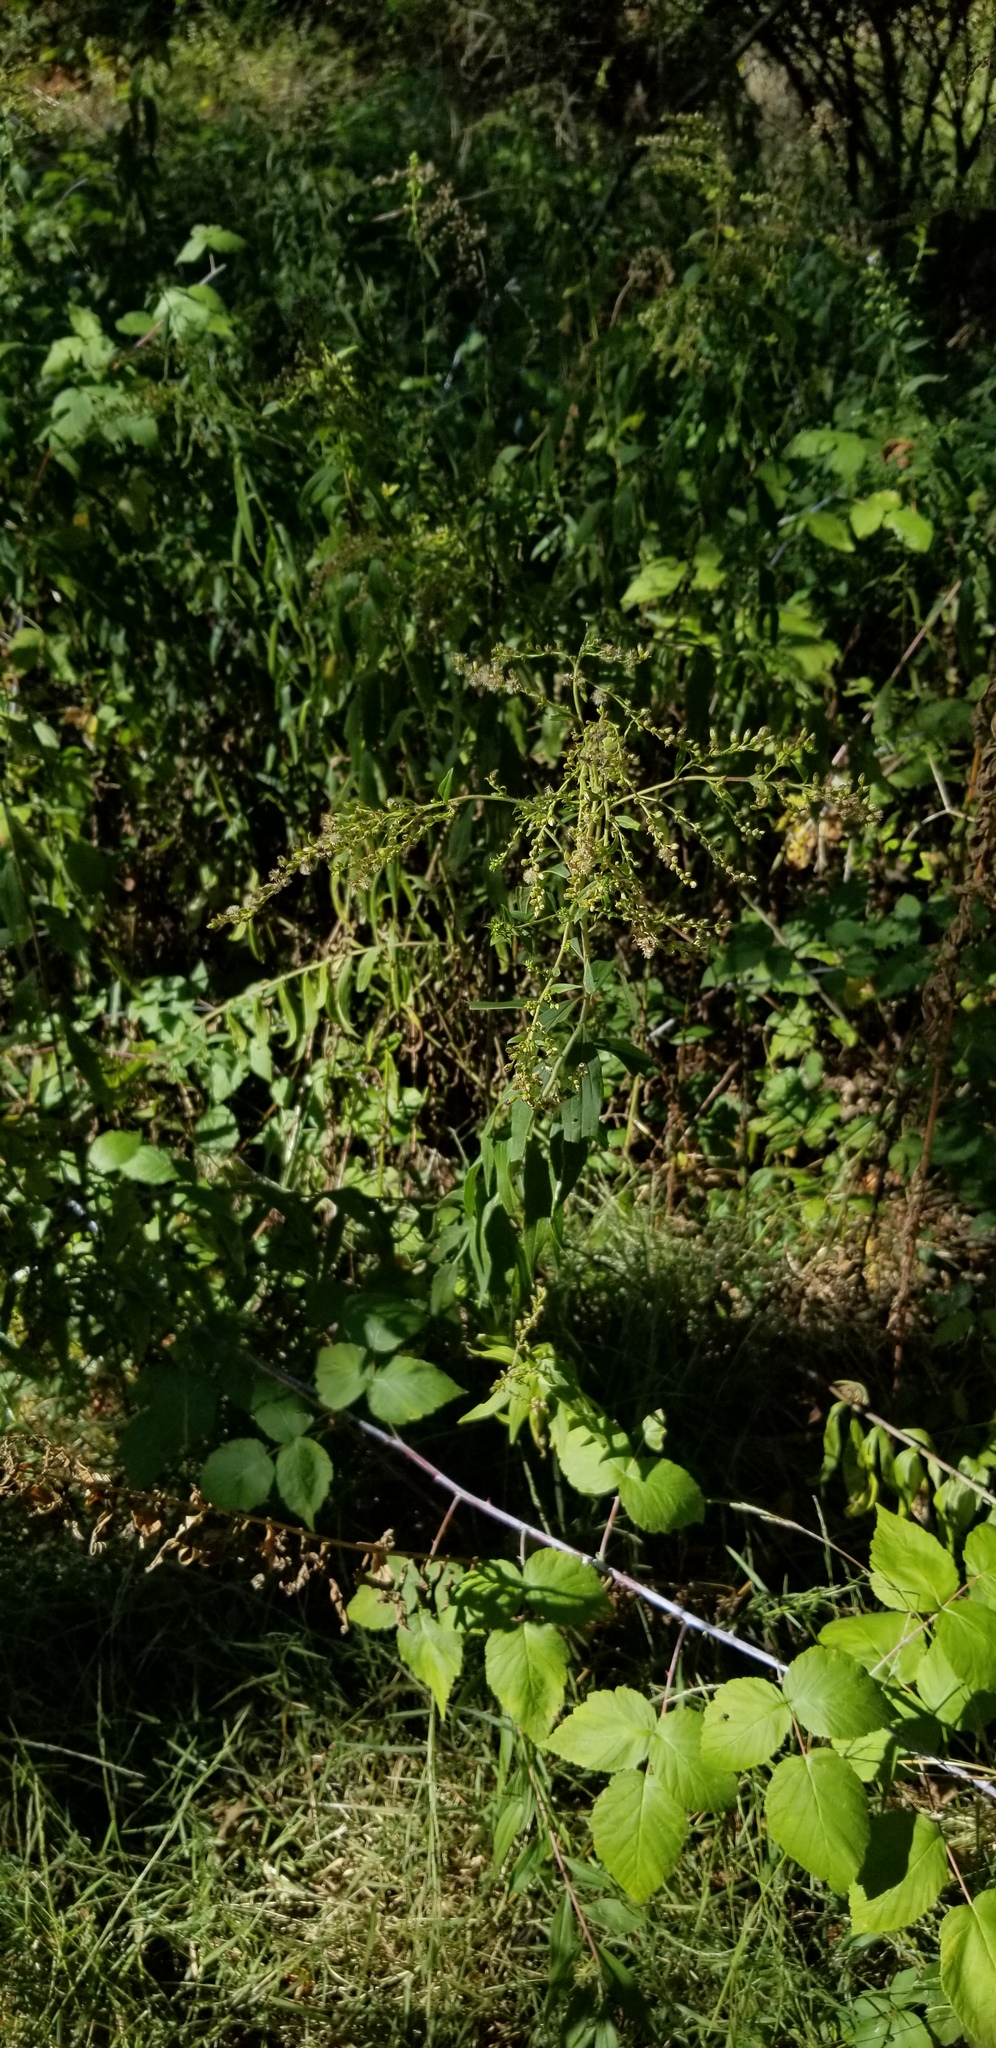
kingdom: Plantae
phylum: Tracheophyta
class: Magnoliopsida
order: Asterales
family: Asteraceae
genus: Solidago
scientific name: Solidago gigantea
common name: Giant goldenrod
